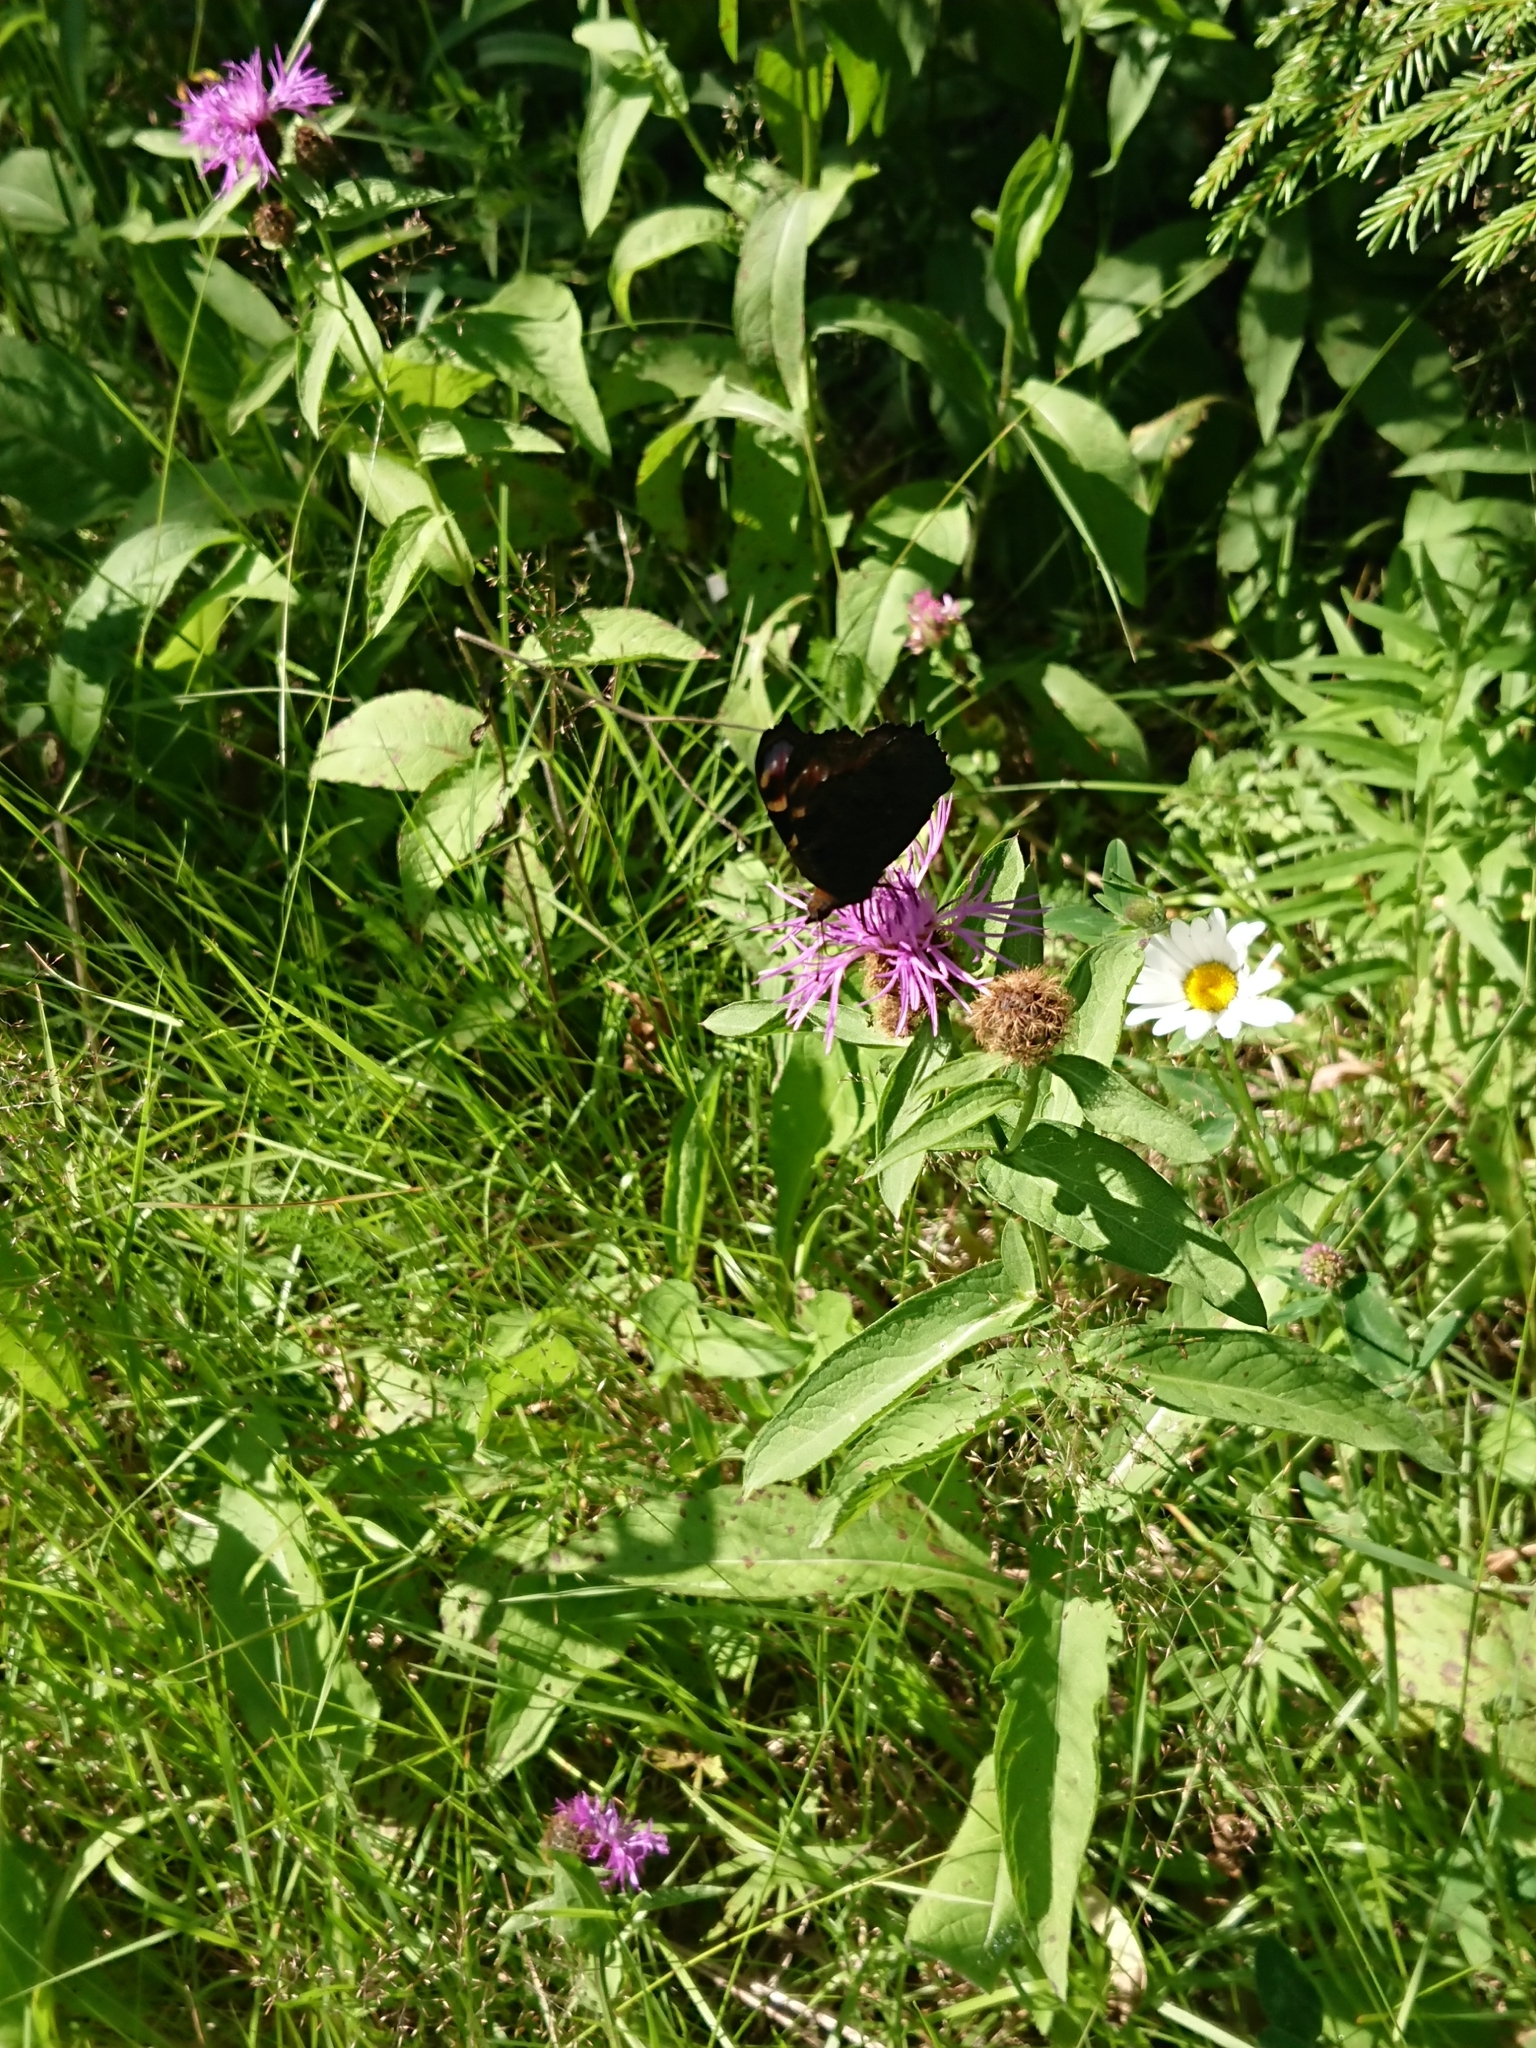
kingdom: Animalia
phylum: Arthropoda
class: Insecta
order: Lepidoptera
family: Nymphalidae
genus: Aglais
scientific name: Aglais io
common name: Peacock
